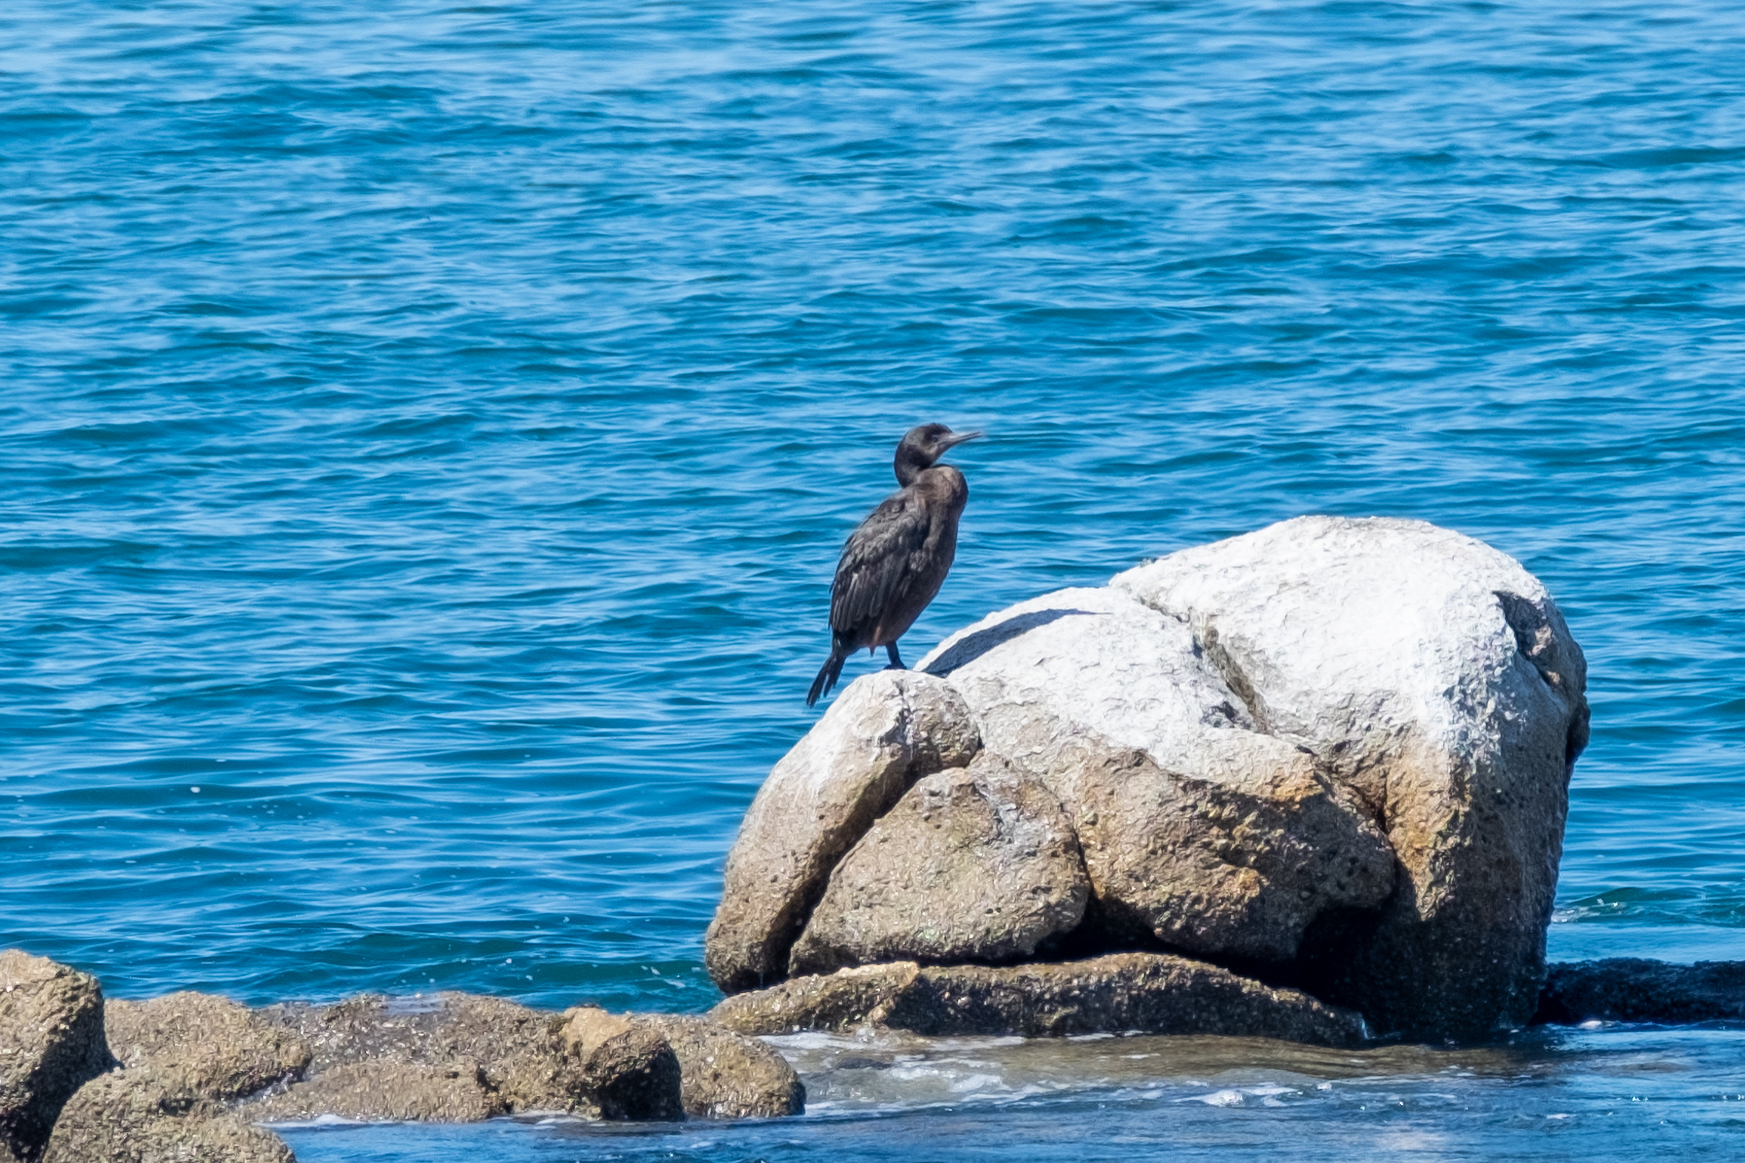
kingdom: Animalia
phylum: Chordata
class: Aves
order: Suliformes
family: Phalacrocoracidae
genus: Urile
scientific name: Urile penicillatus
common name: Brandt's cormorant
